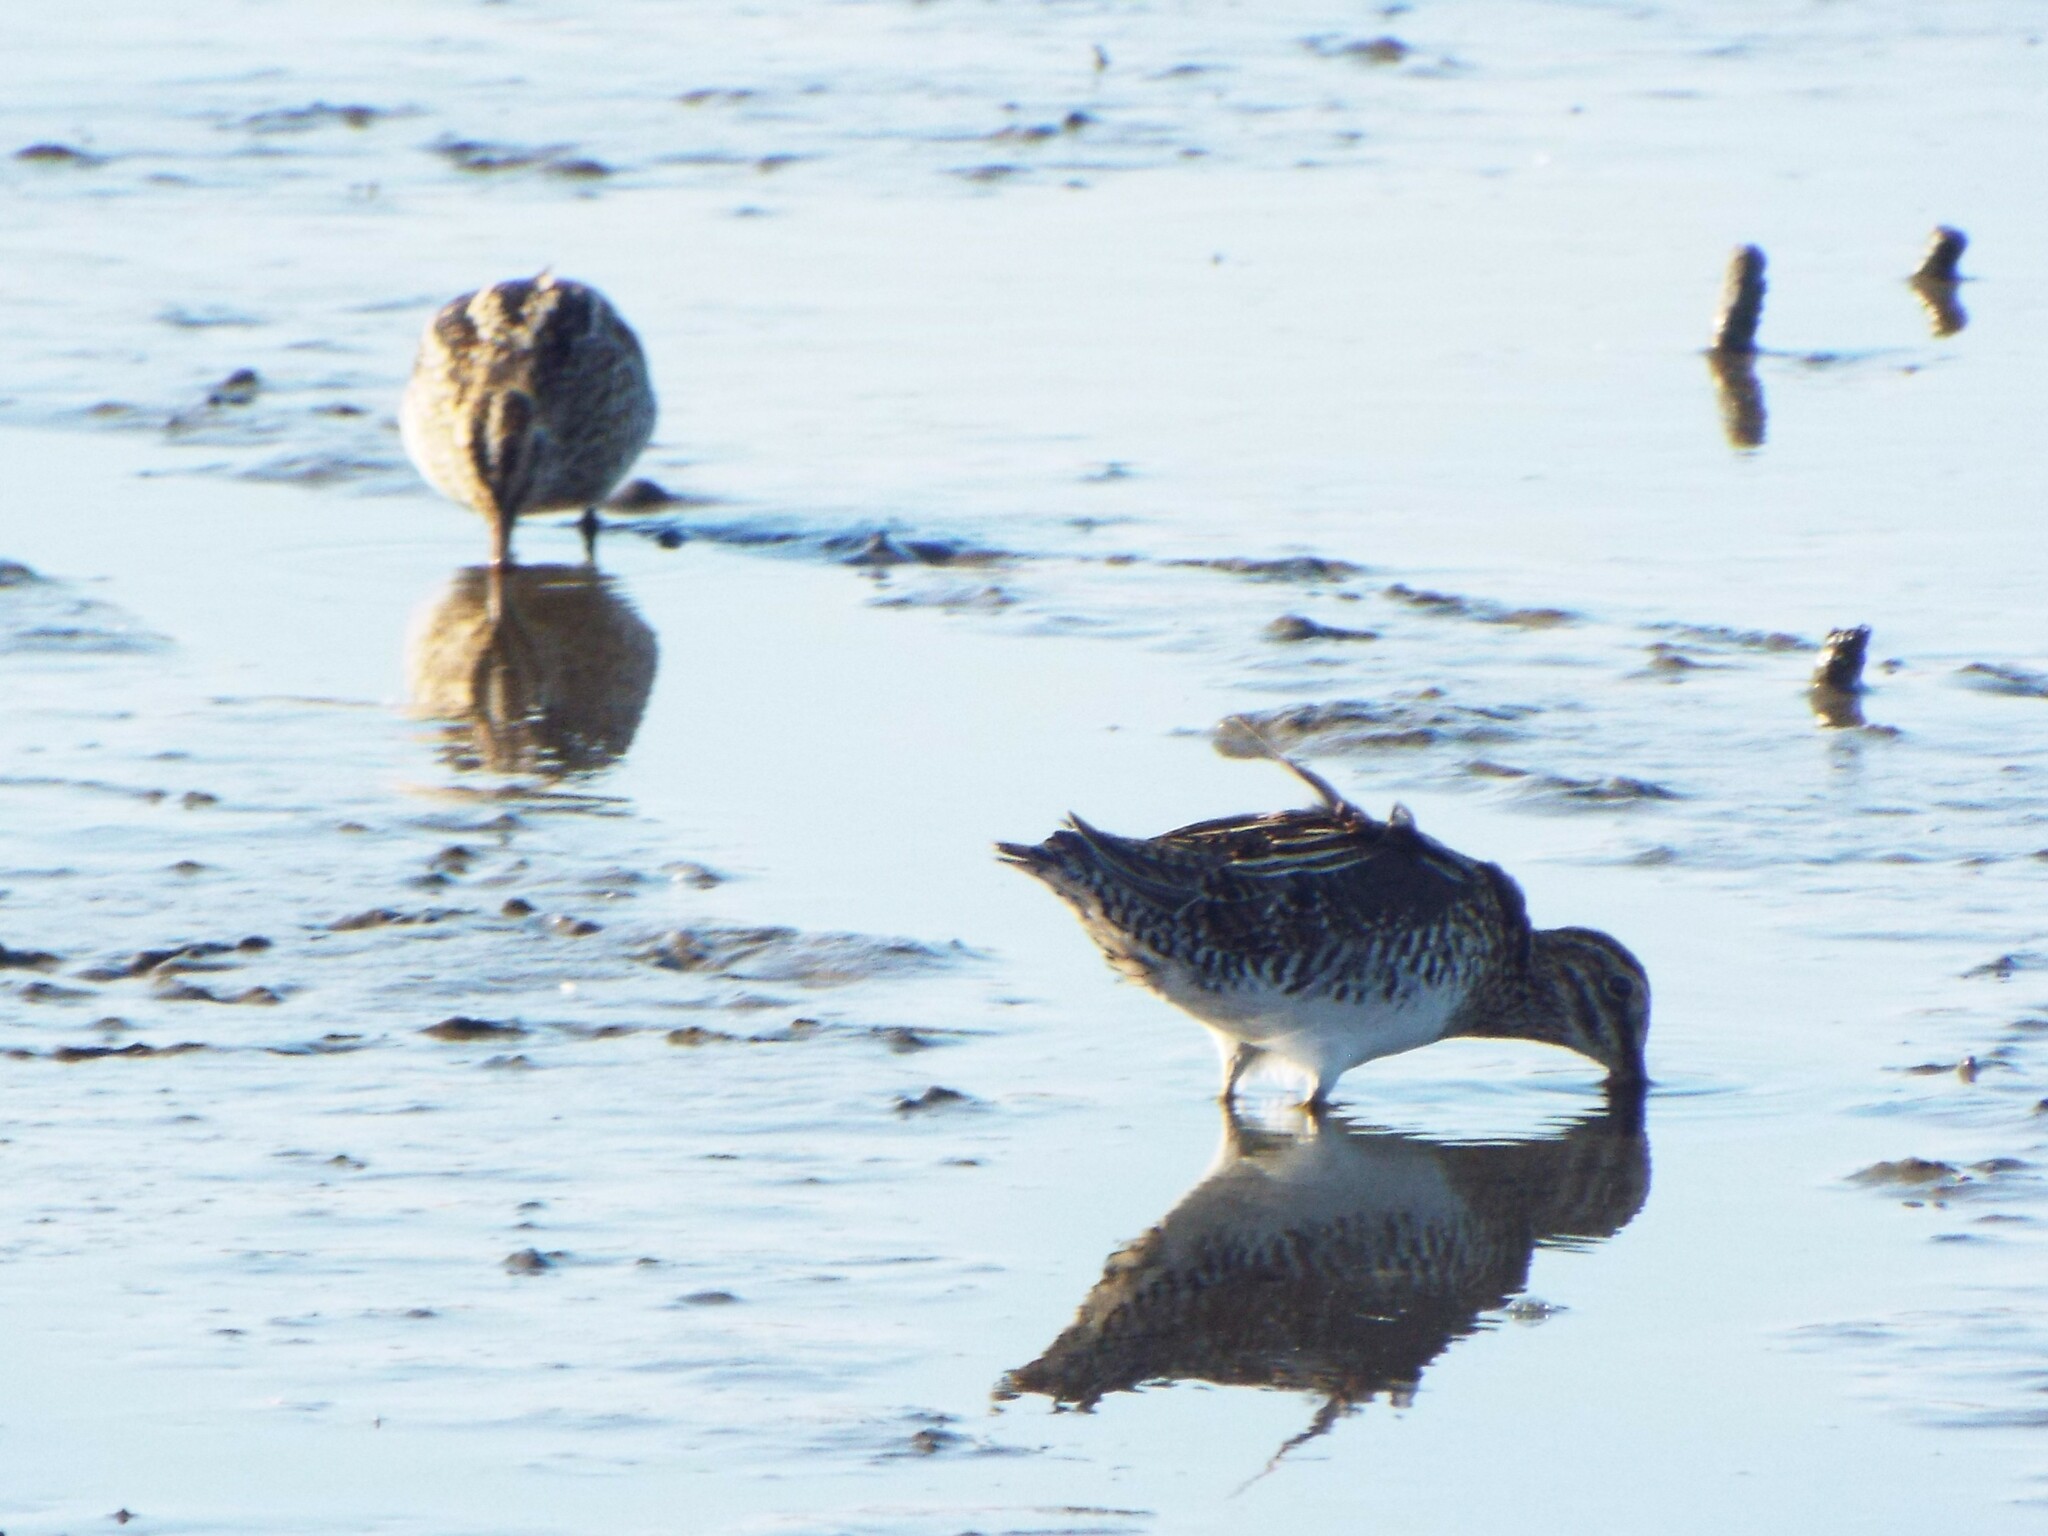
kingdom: Animalia
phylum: Chordata
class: Aves
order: Charadriiformes
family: Scolopacidae
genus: Gallinago
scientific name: Gallinago delicata
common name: Wilson's snipe
